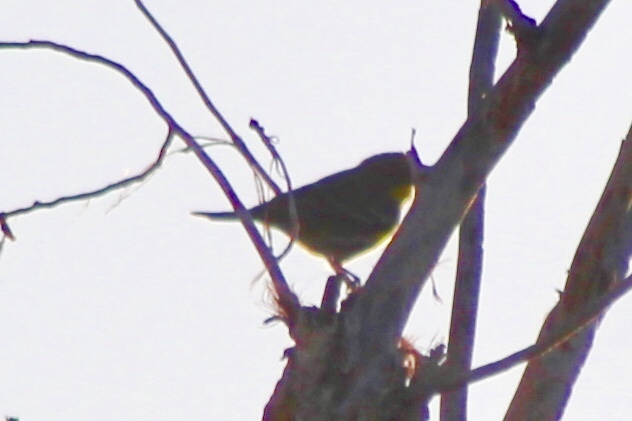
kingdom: Animalia
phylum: Chordata
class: Aves
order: Passeriformes
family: Parulidae
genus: Setophaga
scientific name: Setophaga auduboni
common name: Audubon's warbler
